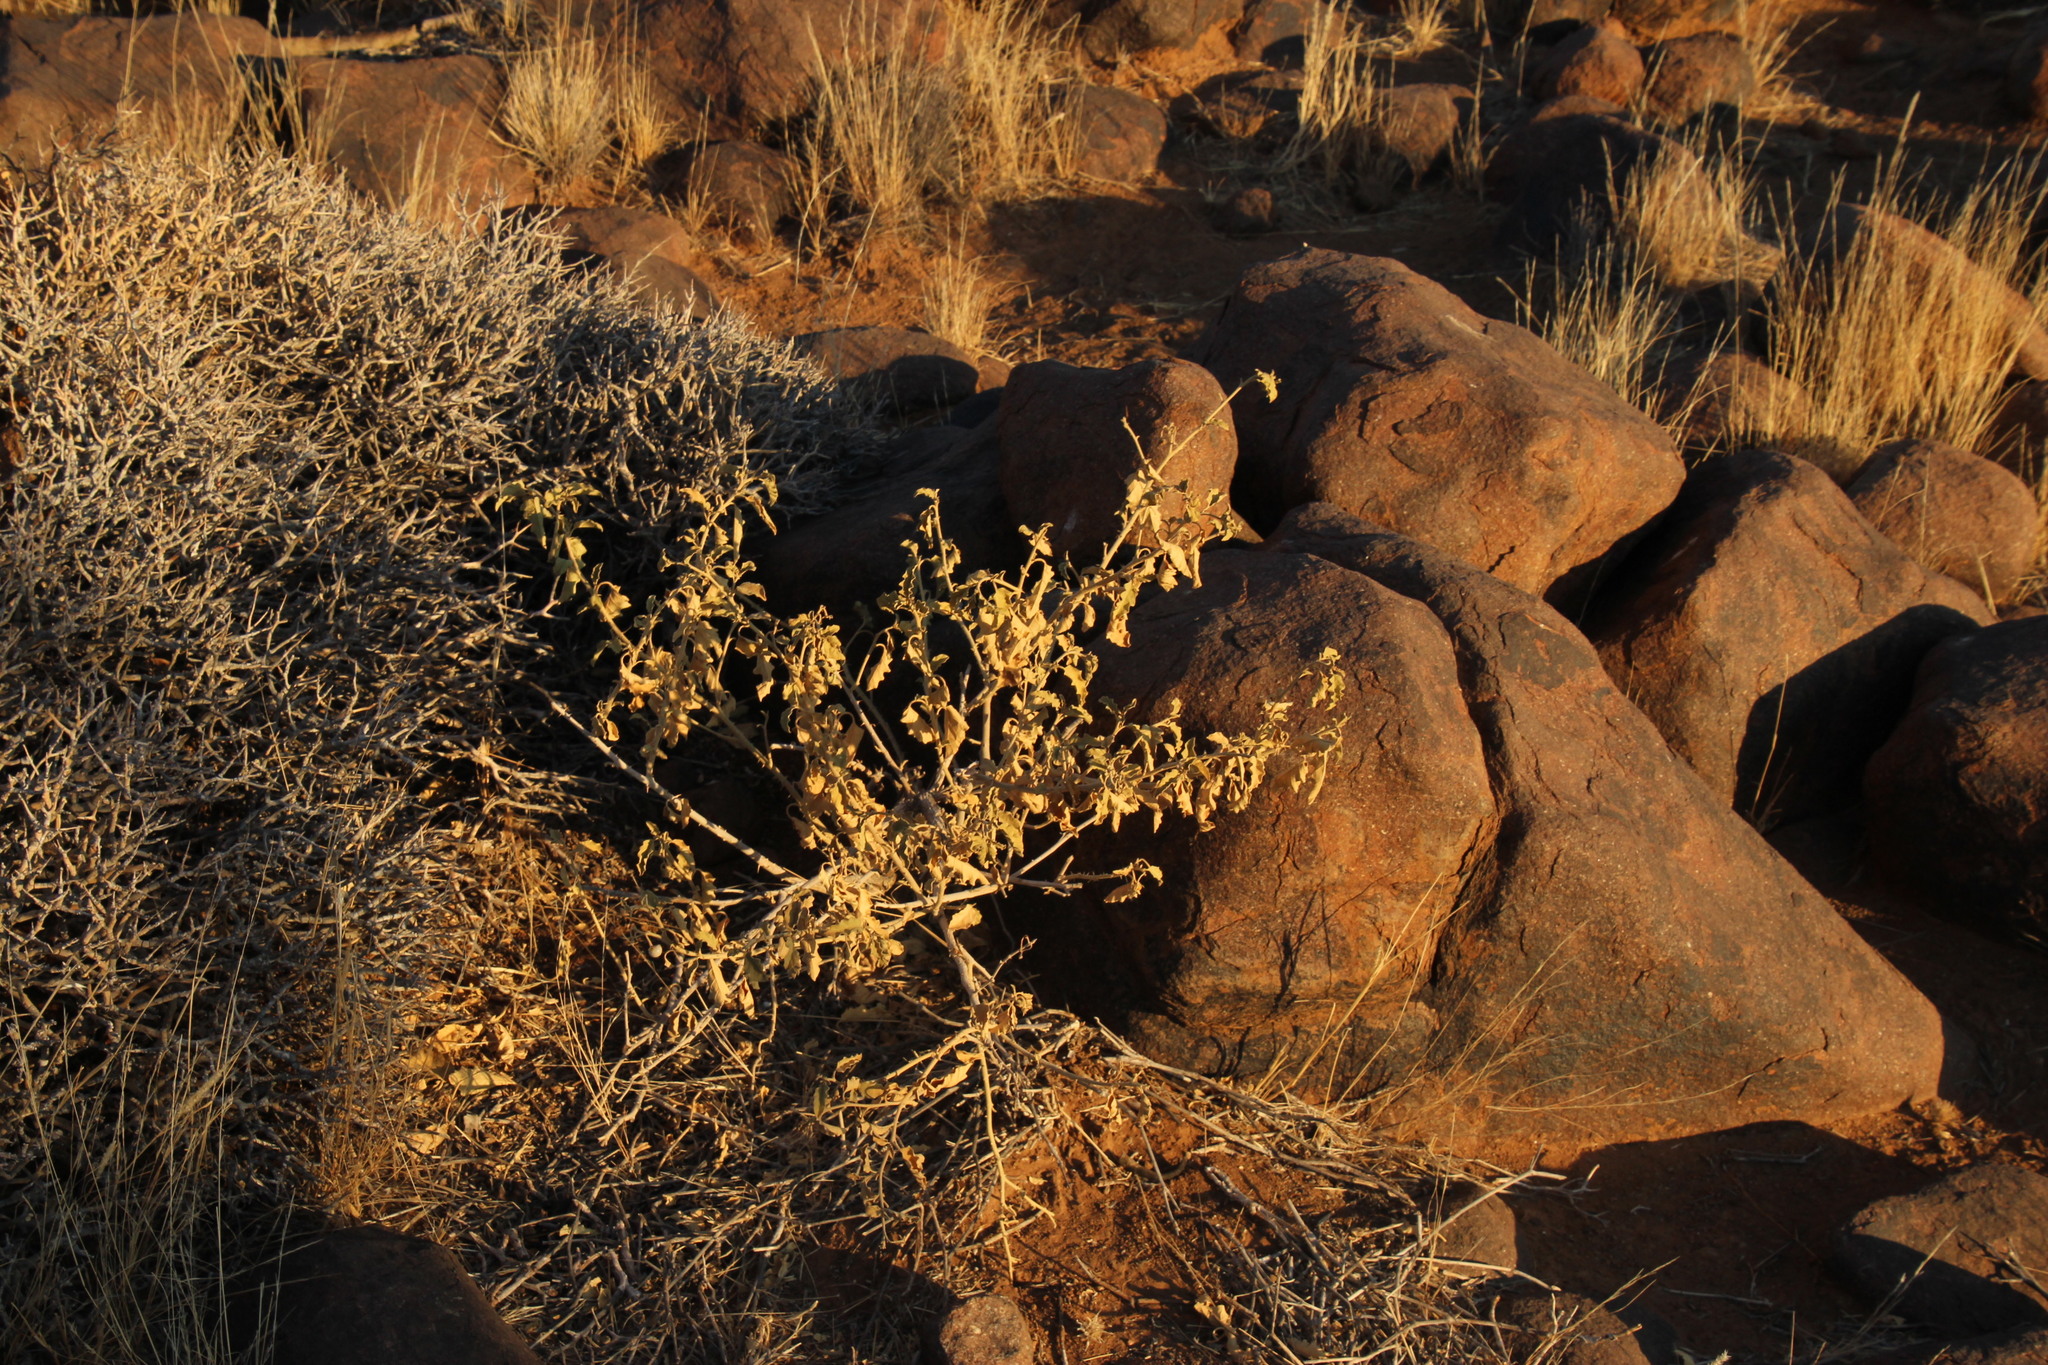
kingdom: Plantae
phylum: Tracheophyta
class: Magnoliopsida
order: Solanales
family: Solanaceae
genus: Solanum
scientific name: Solanum burchellii
